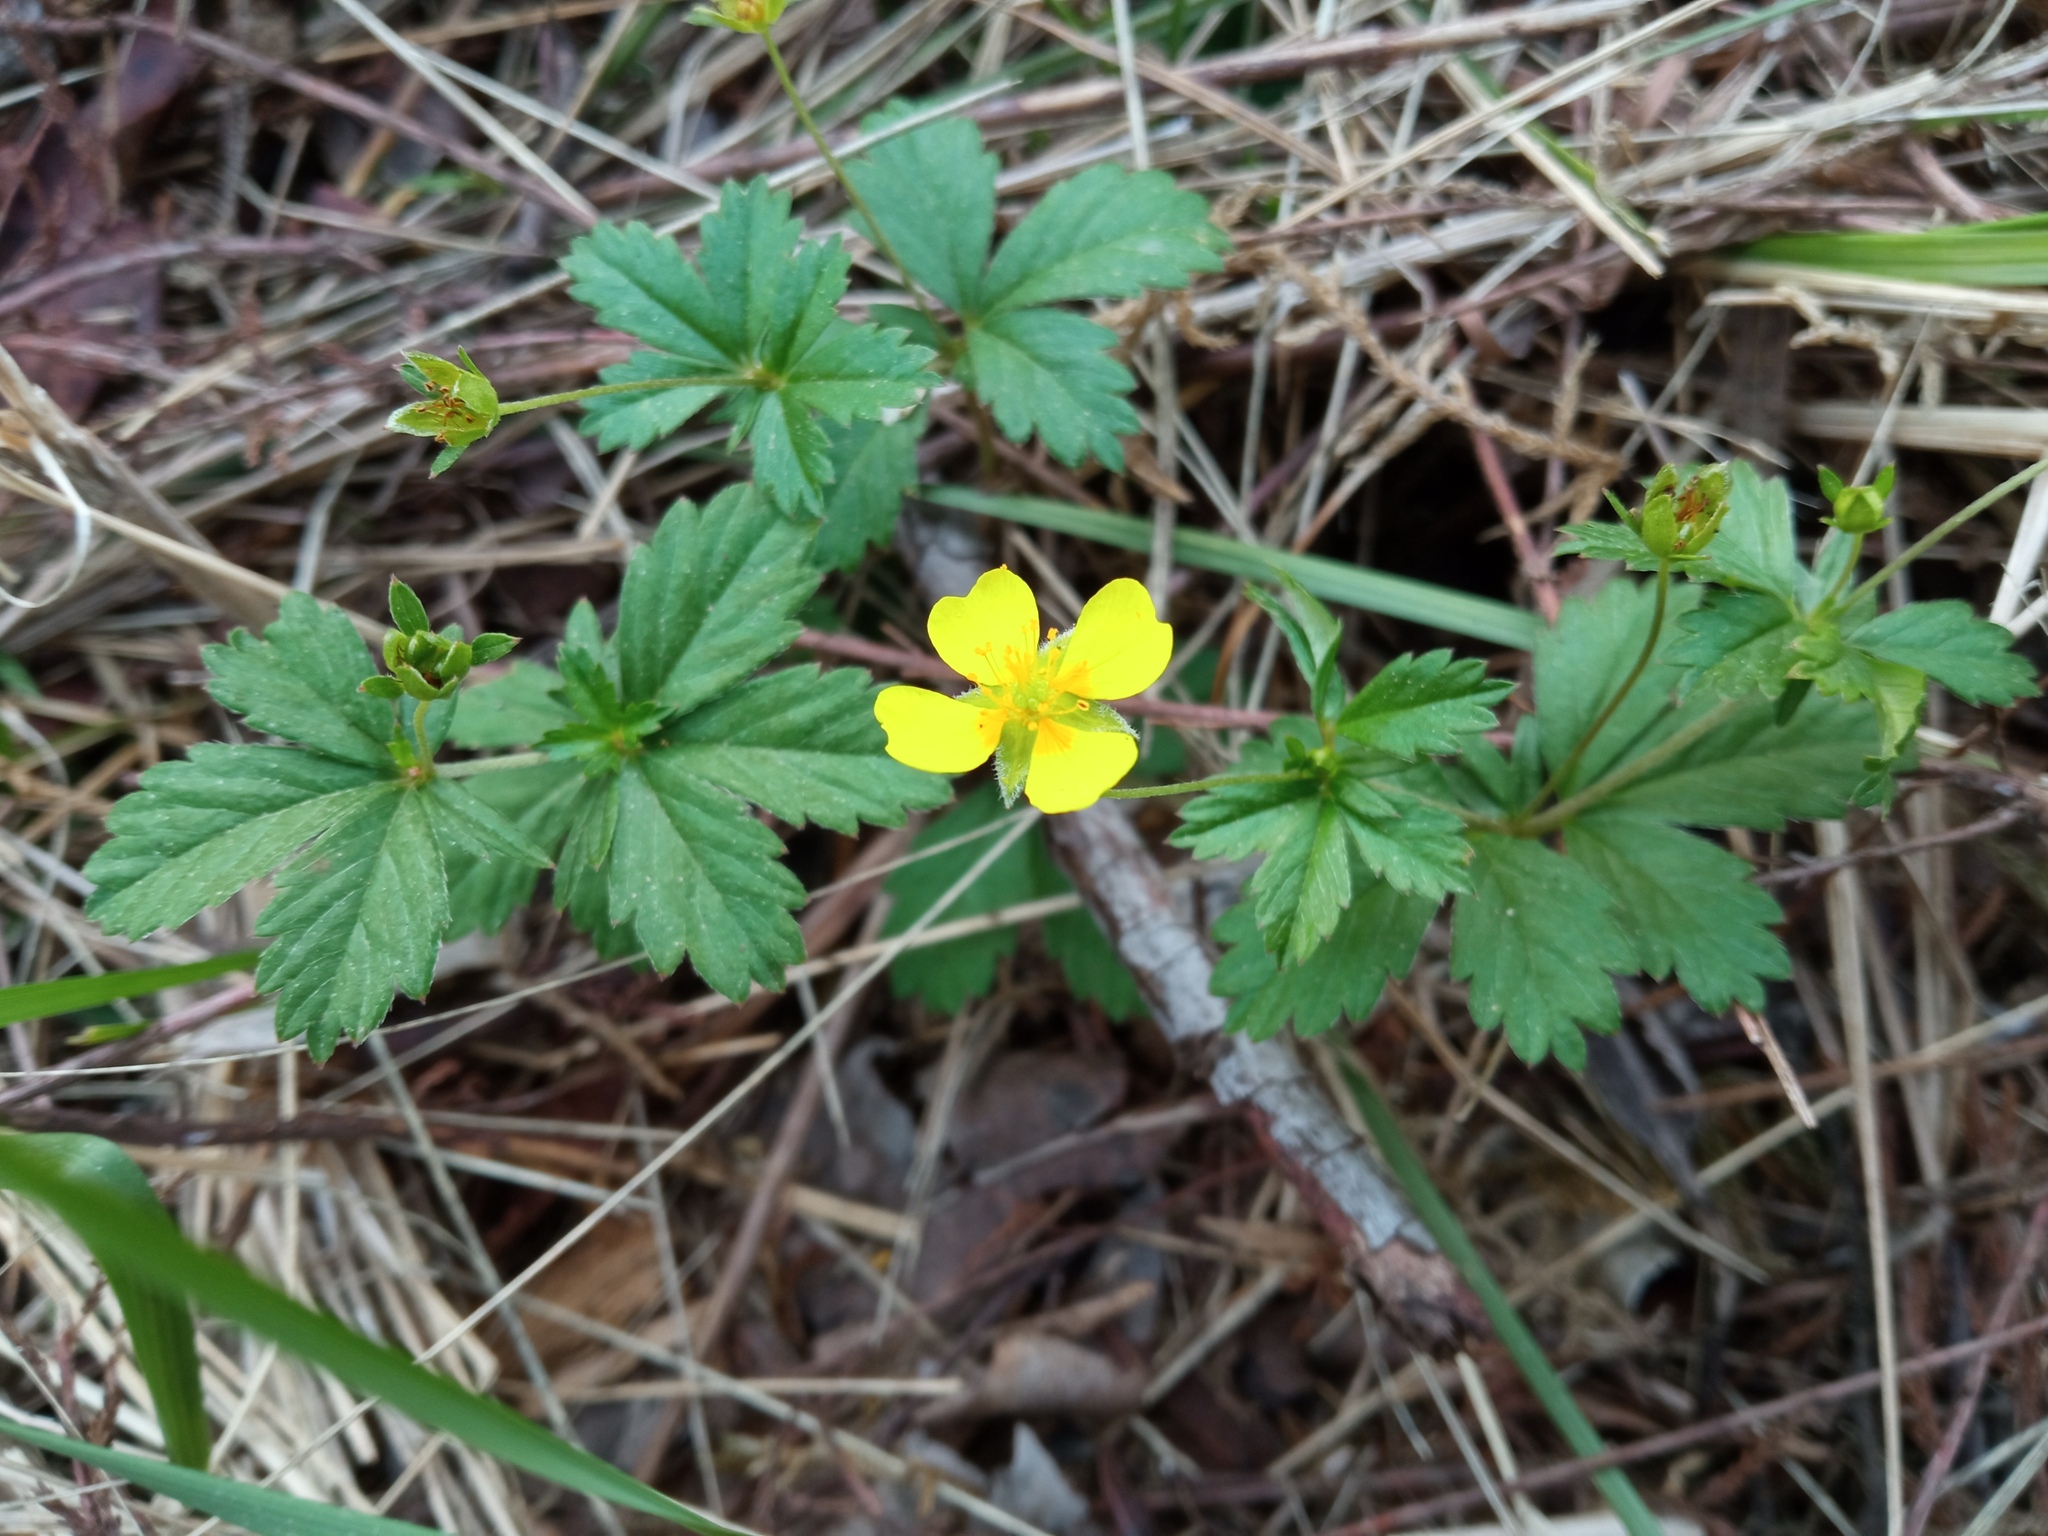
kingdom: Plantae
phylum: Tracheophyta
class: Magnoliopsida
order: Rosales
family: Rosaceae
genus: Potentilla
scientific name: Potentilla erecta
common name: Tormentil
